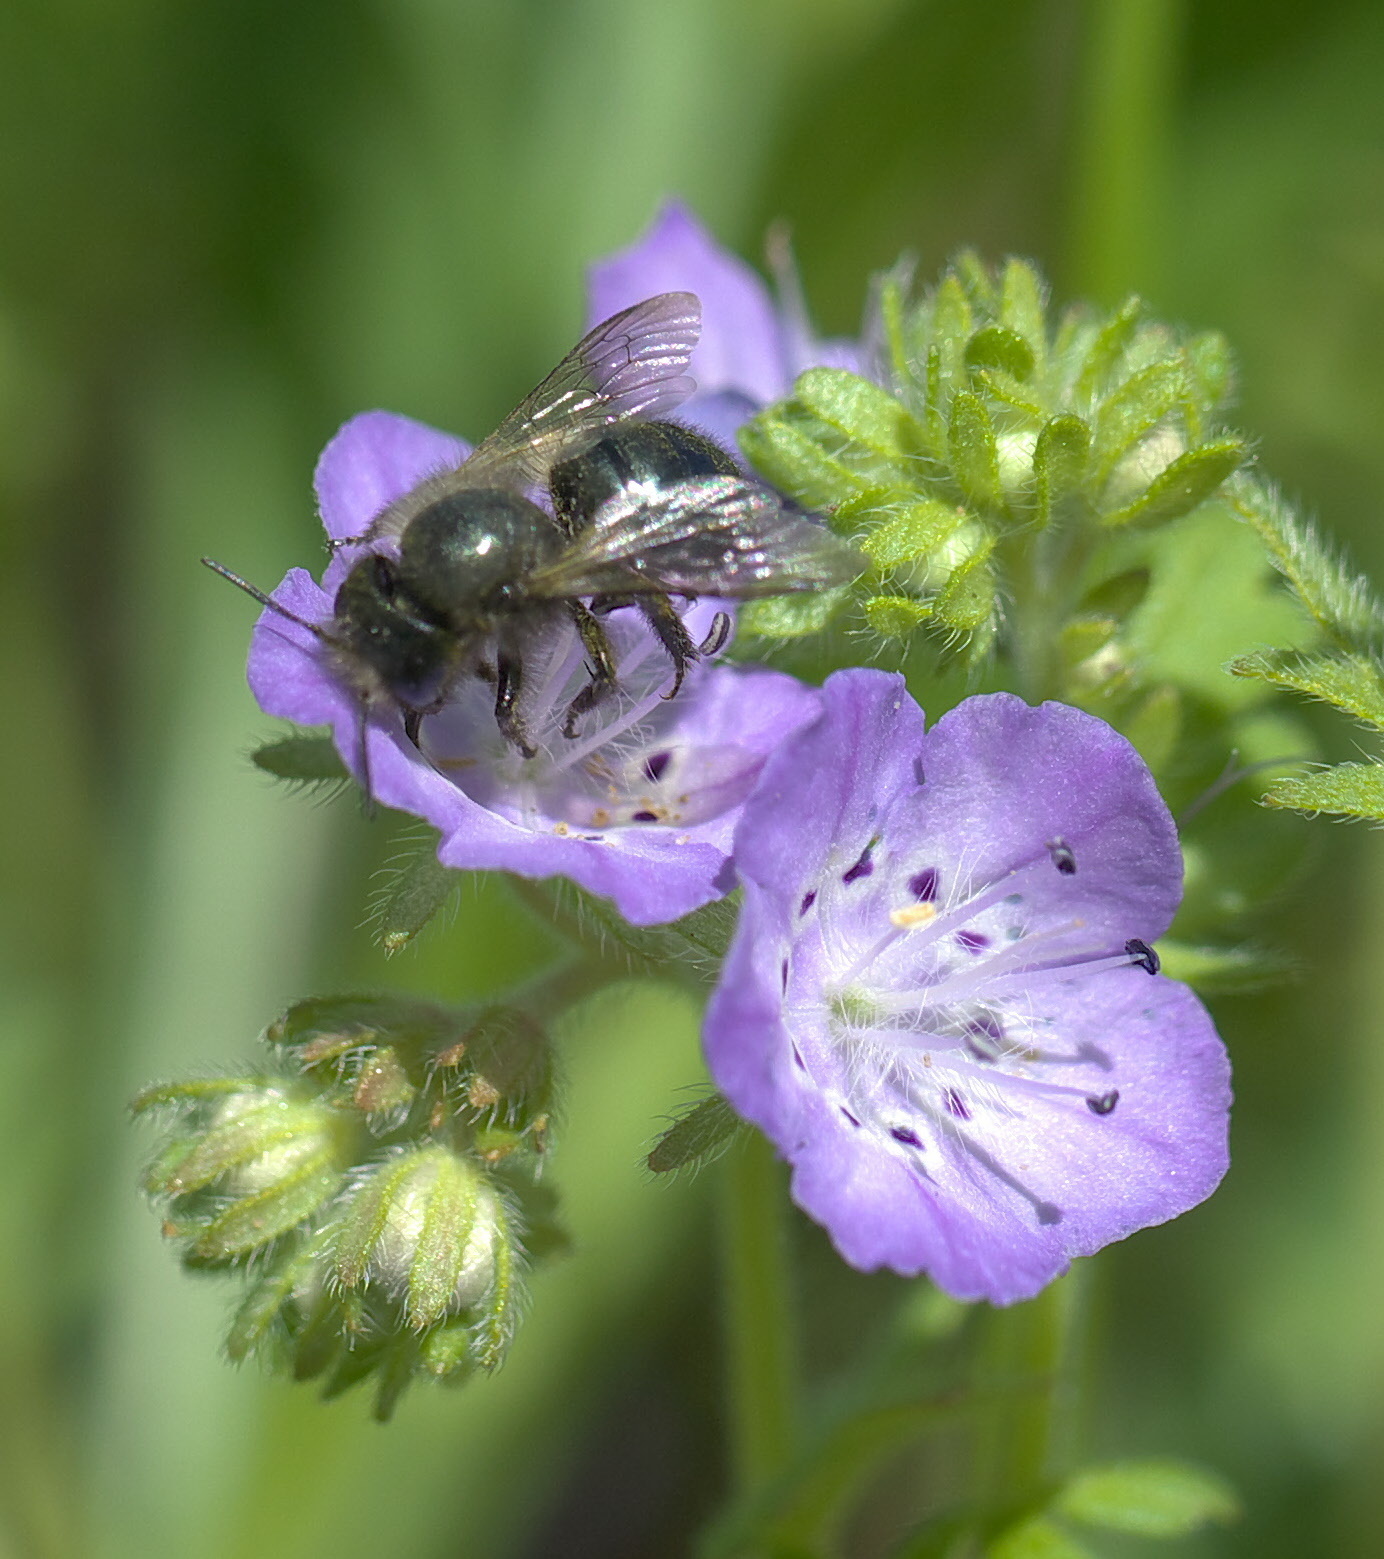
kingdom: Animalia
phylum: Arthropoda
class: Insecta
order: Hymenoptera
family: Megachilidae
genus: Osmia
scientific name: Osmia lignaria
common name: Blue orchard bee
